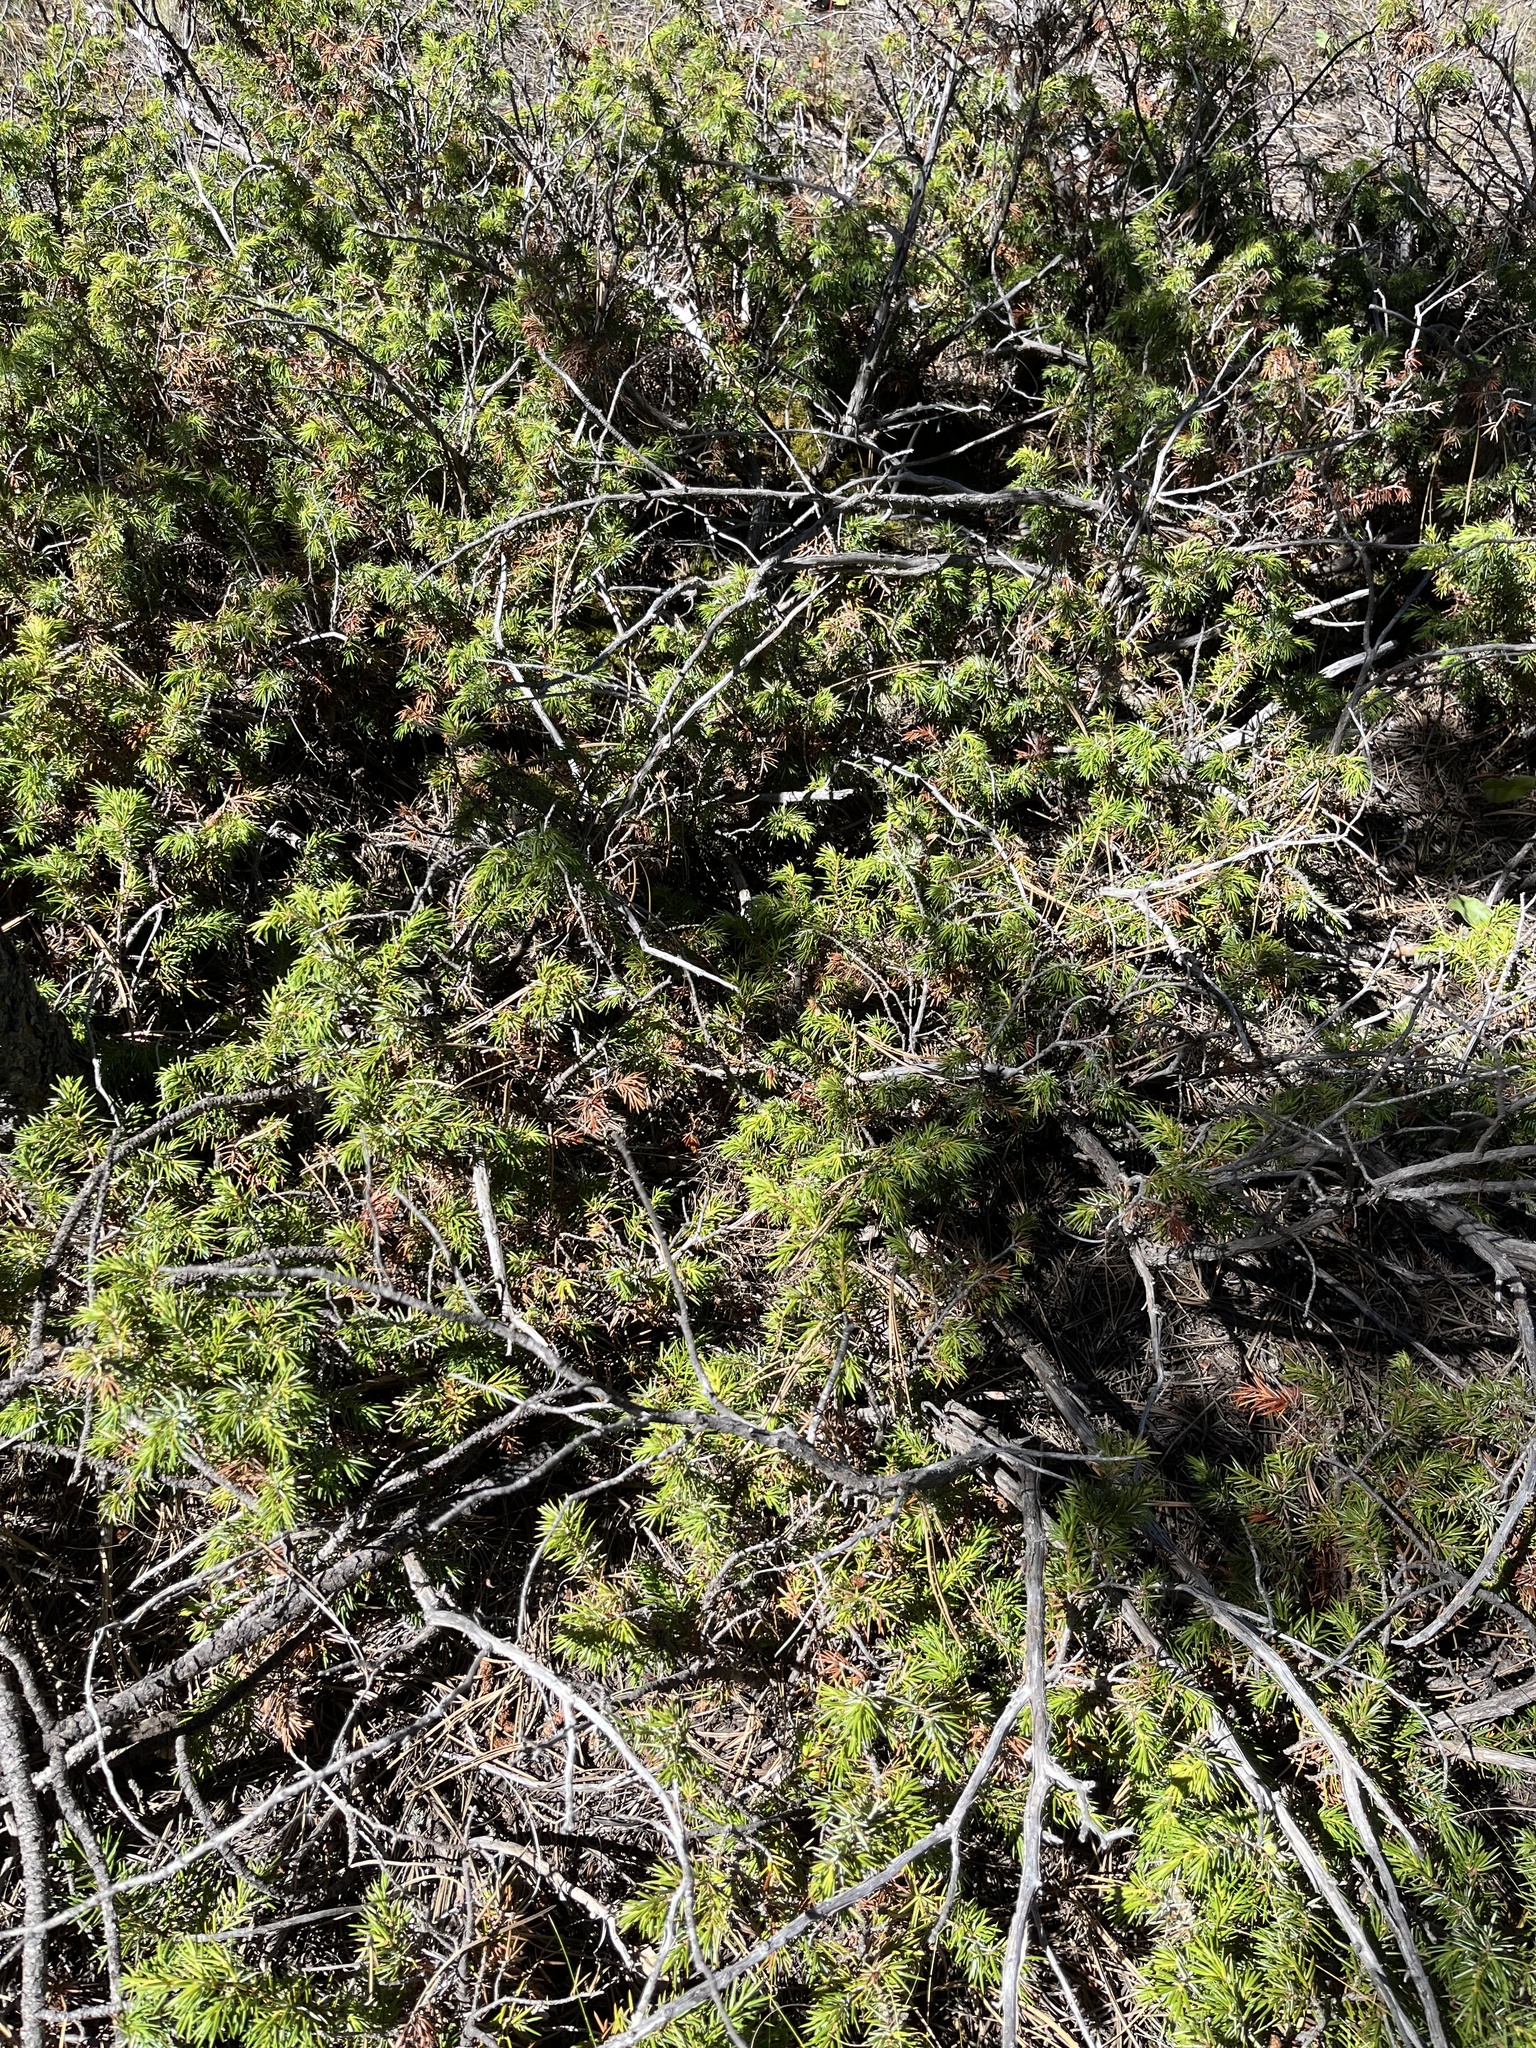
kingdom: Plantae
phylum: Tracheophyta
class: Pinopsida
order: Pinales
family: Cupressaceae
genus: Juniperus
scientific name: Juniperus communis
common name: Common juniper
